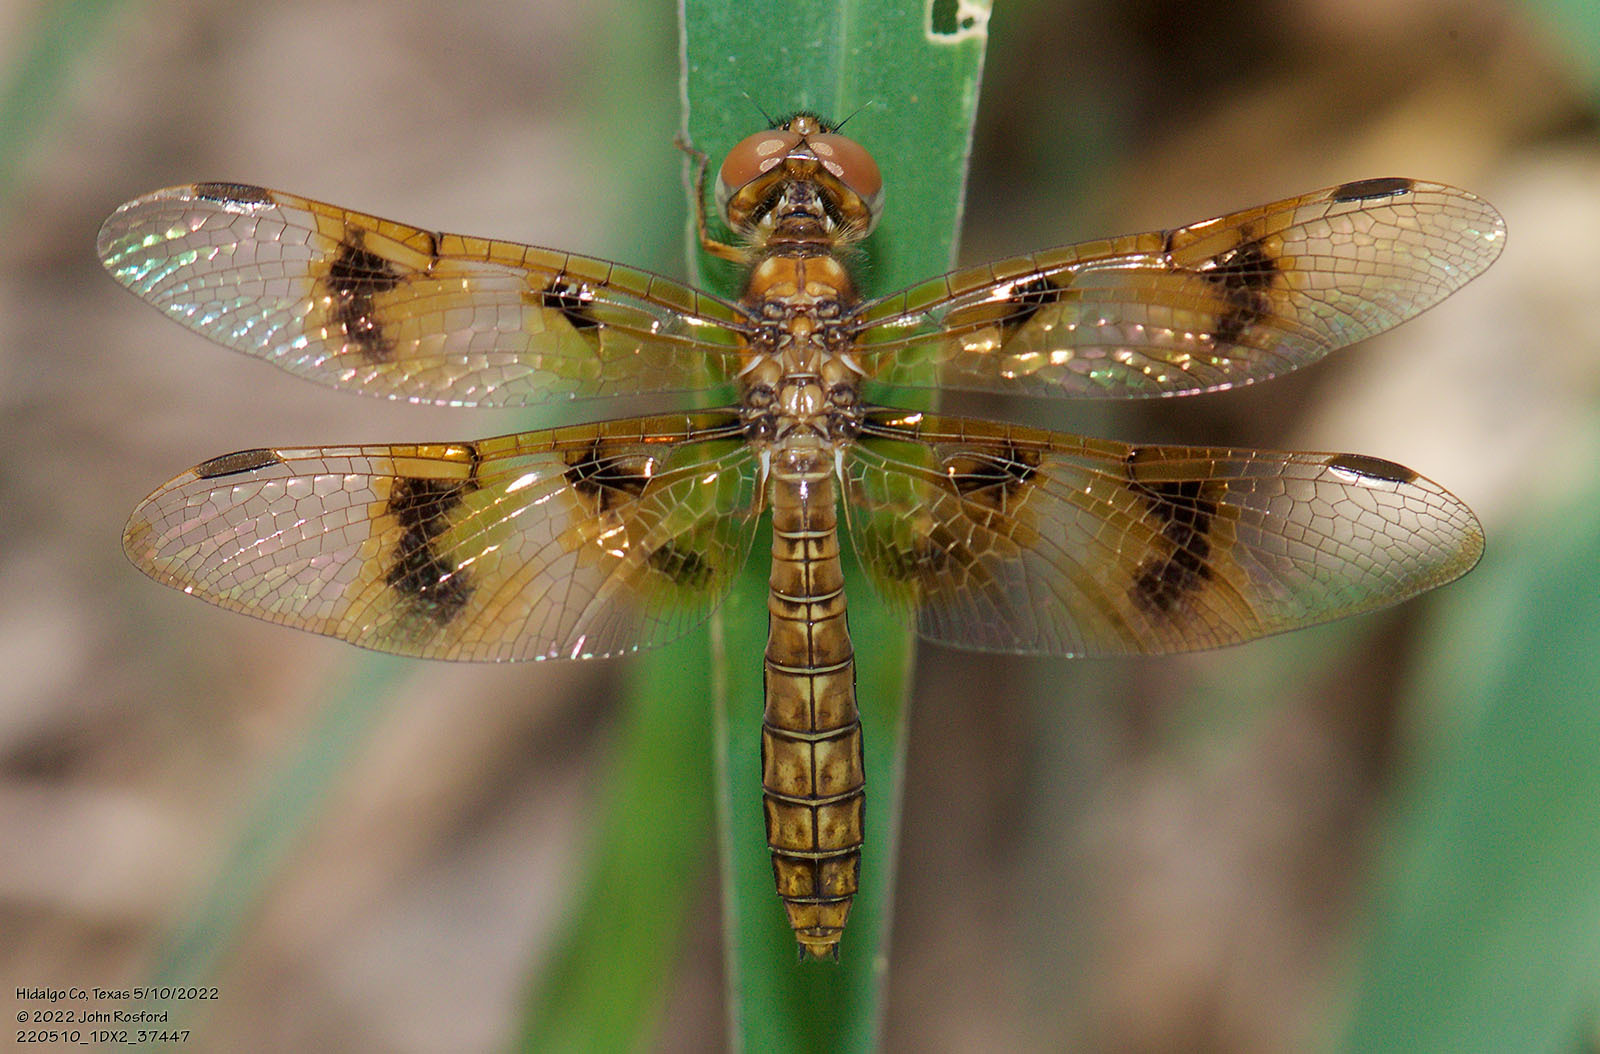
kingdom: Animalia
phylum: Arthropoda
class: Insecta
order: Odonata
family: Libellulidae
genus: Perithemis
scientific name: Perithemis tenera
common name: Eastern amberwing
